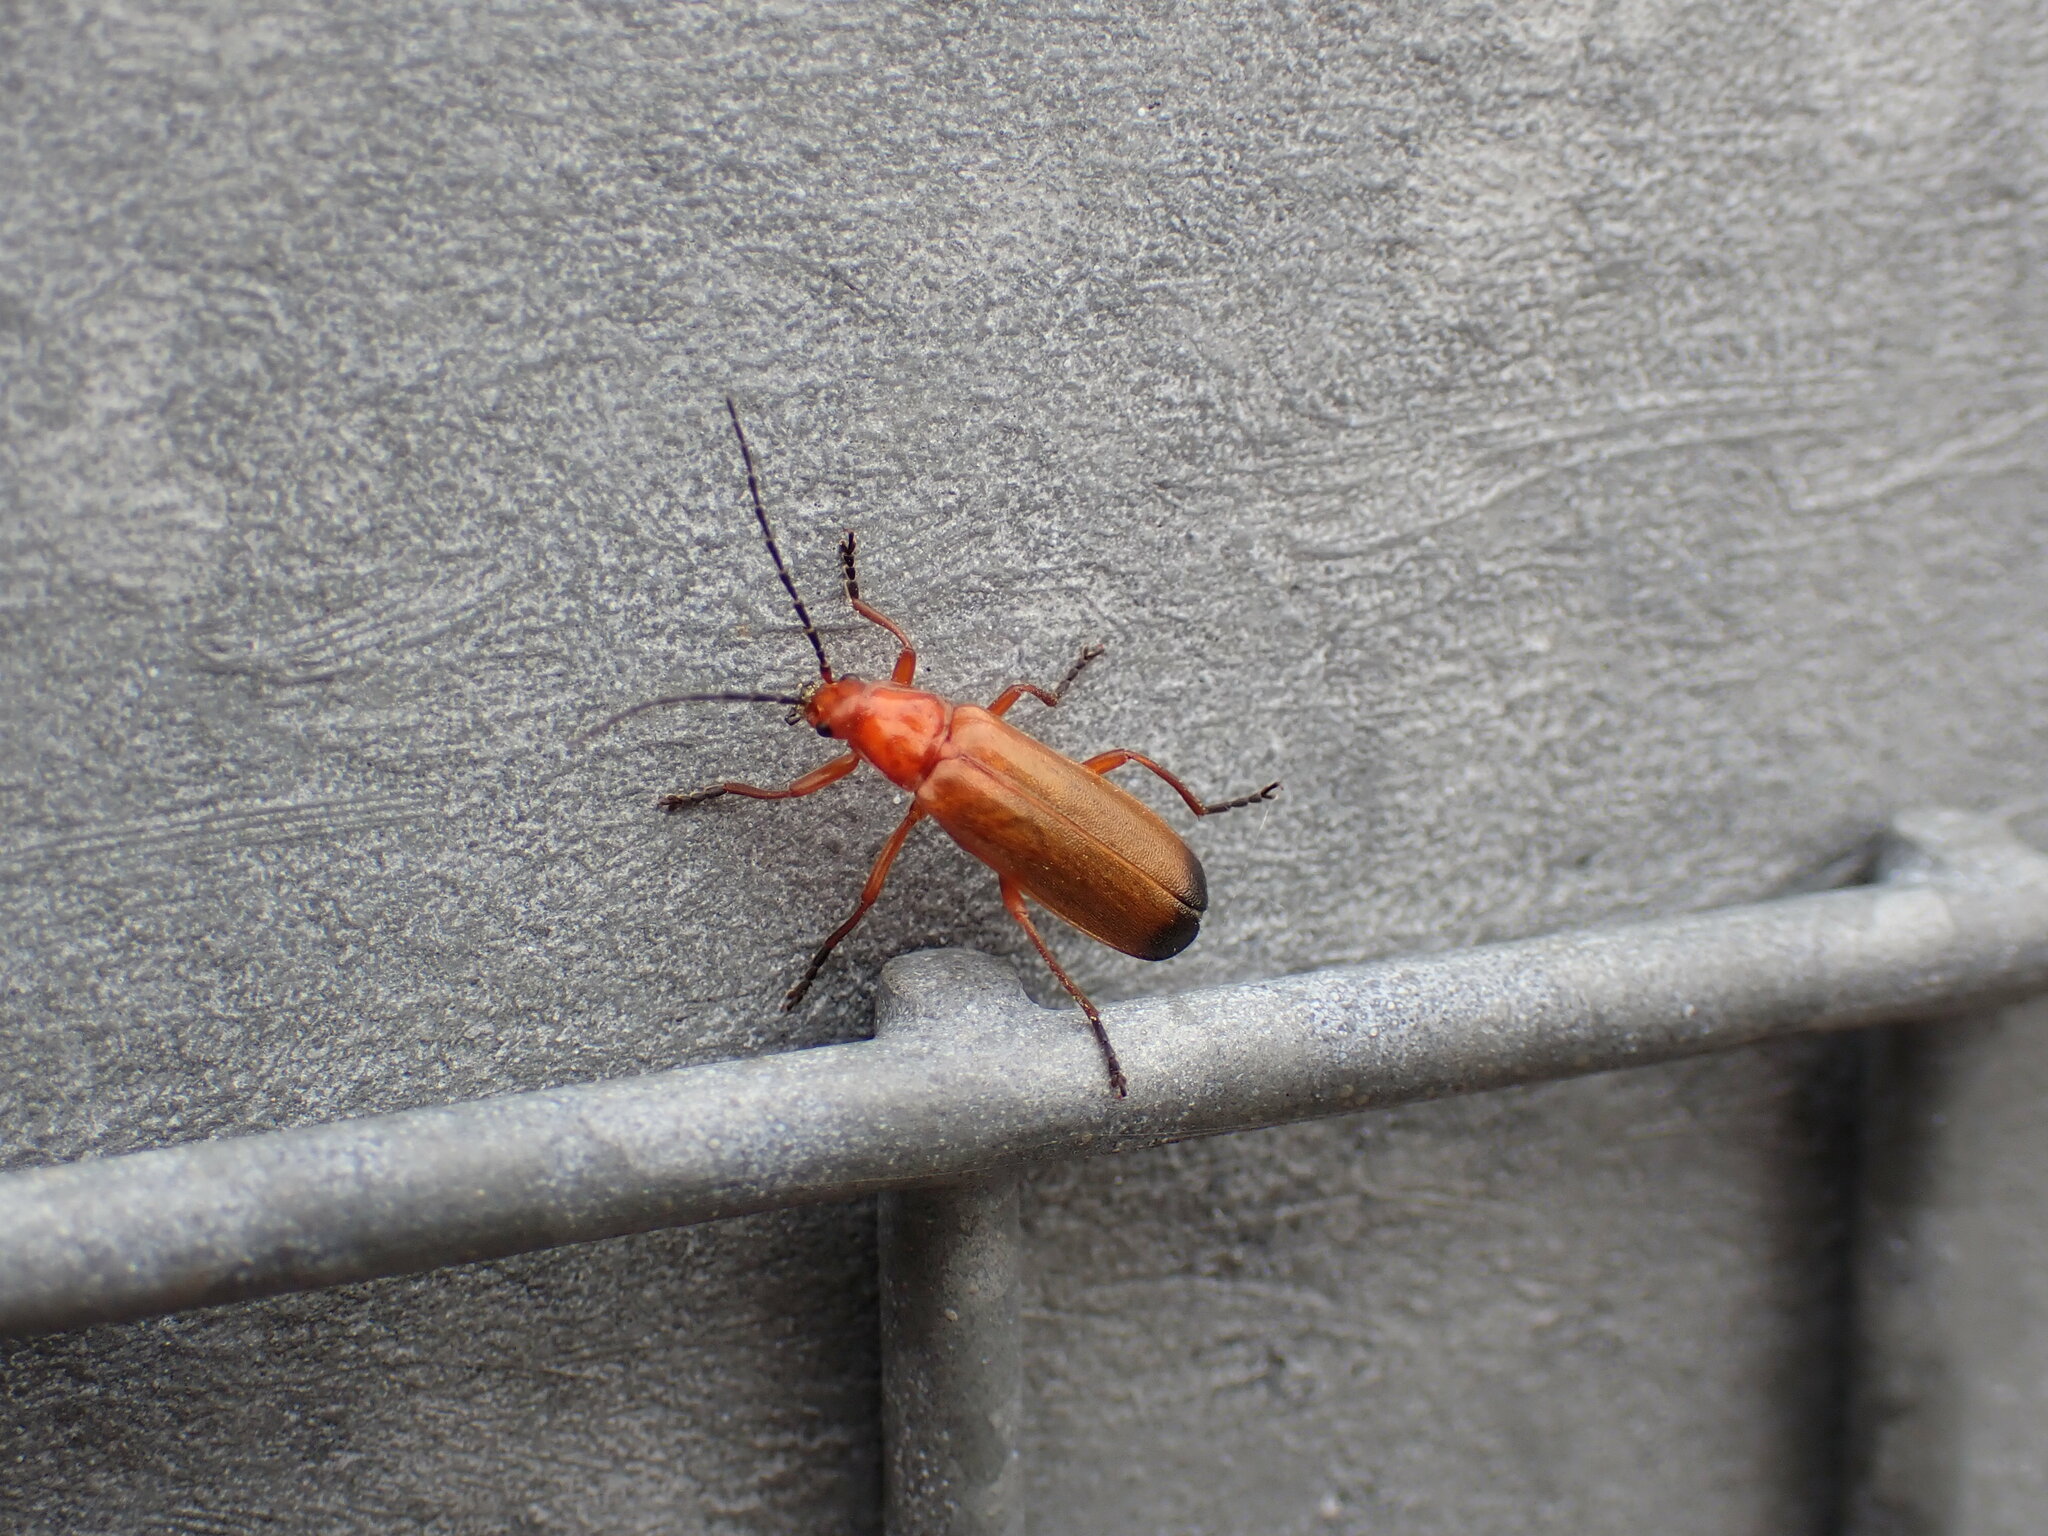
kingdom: Animalia
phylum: Arthropoda
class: Insecta
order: Coleoptera
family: Cantharidae
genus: Rhagonycha
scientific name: Rhagonycha fulva
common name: Common red soldier beetle
